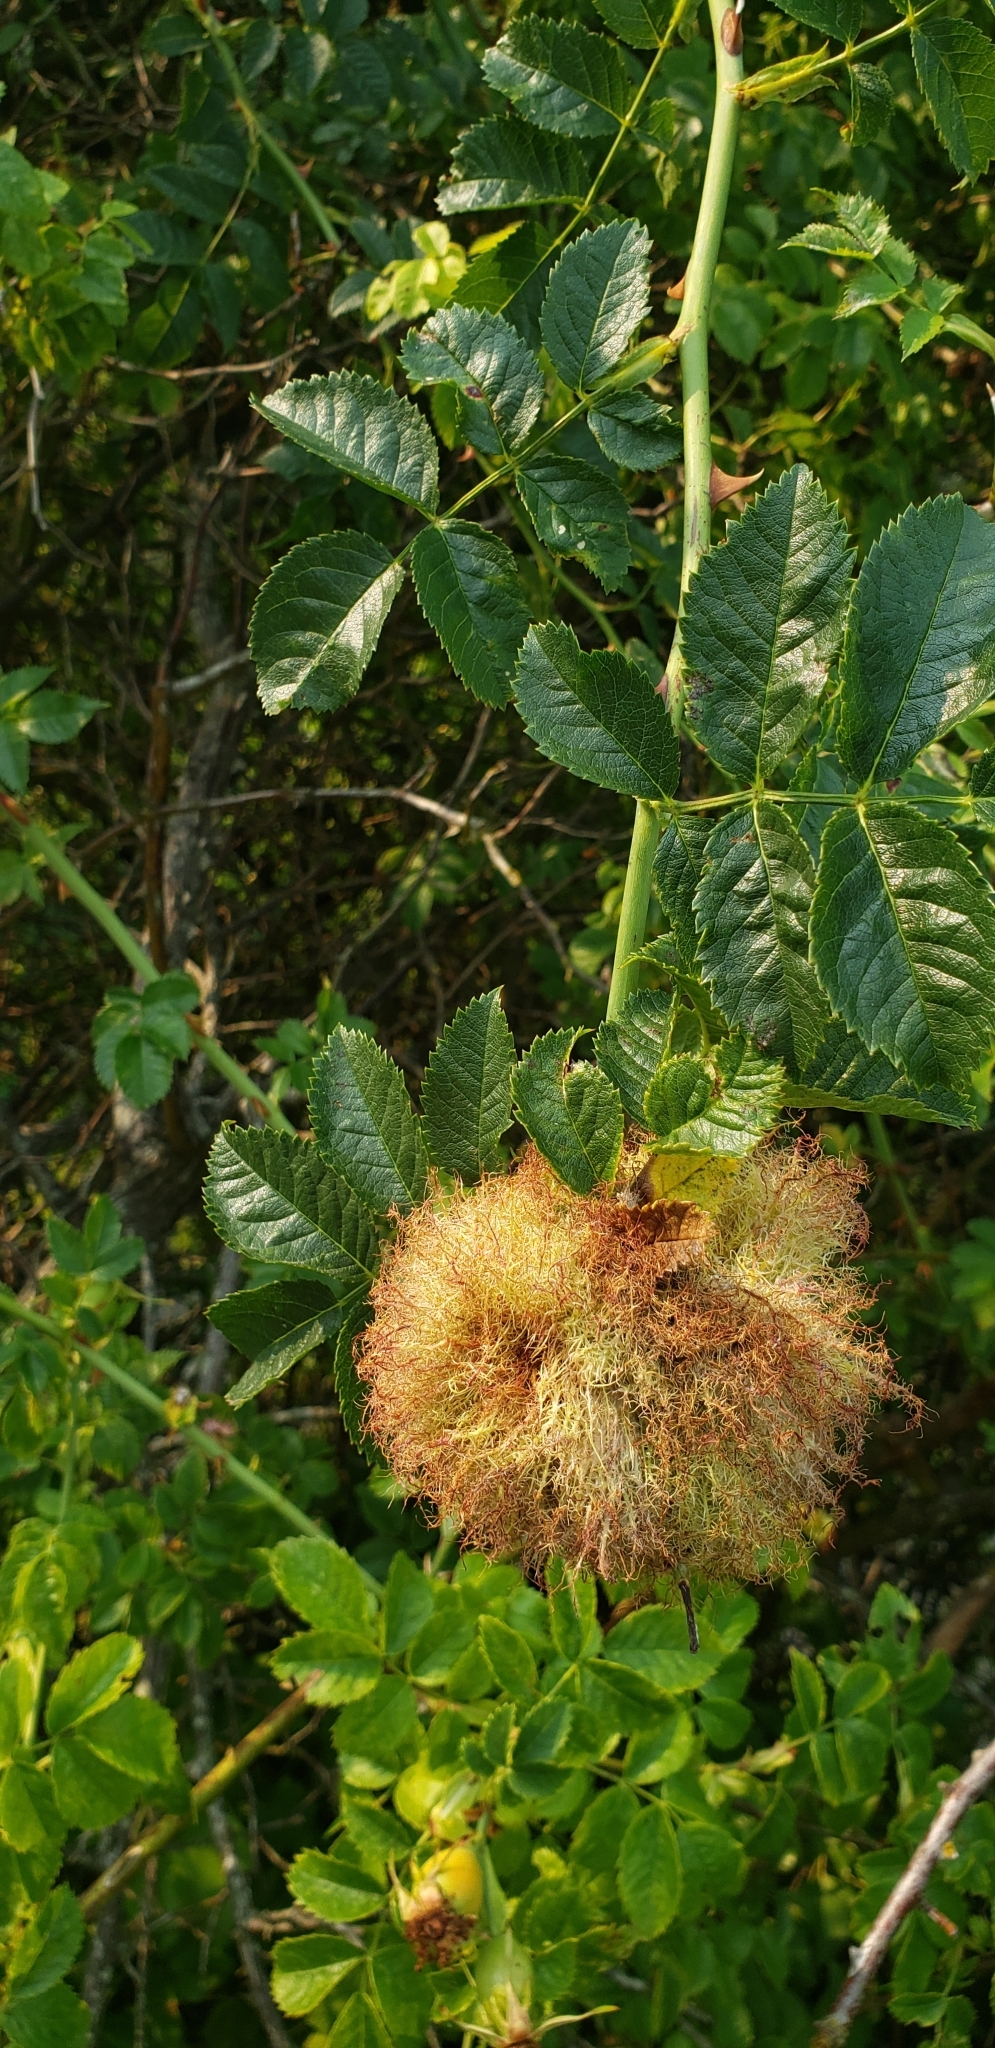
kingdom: Animalia
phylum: Arthropoda
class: Insecta
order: Hymenoptera
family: Cynipidae
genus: Diplolepis
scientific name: Diplolepis rosae
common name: Bedeguar gall
